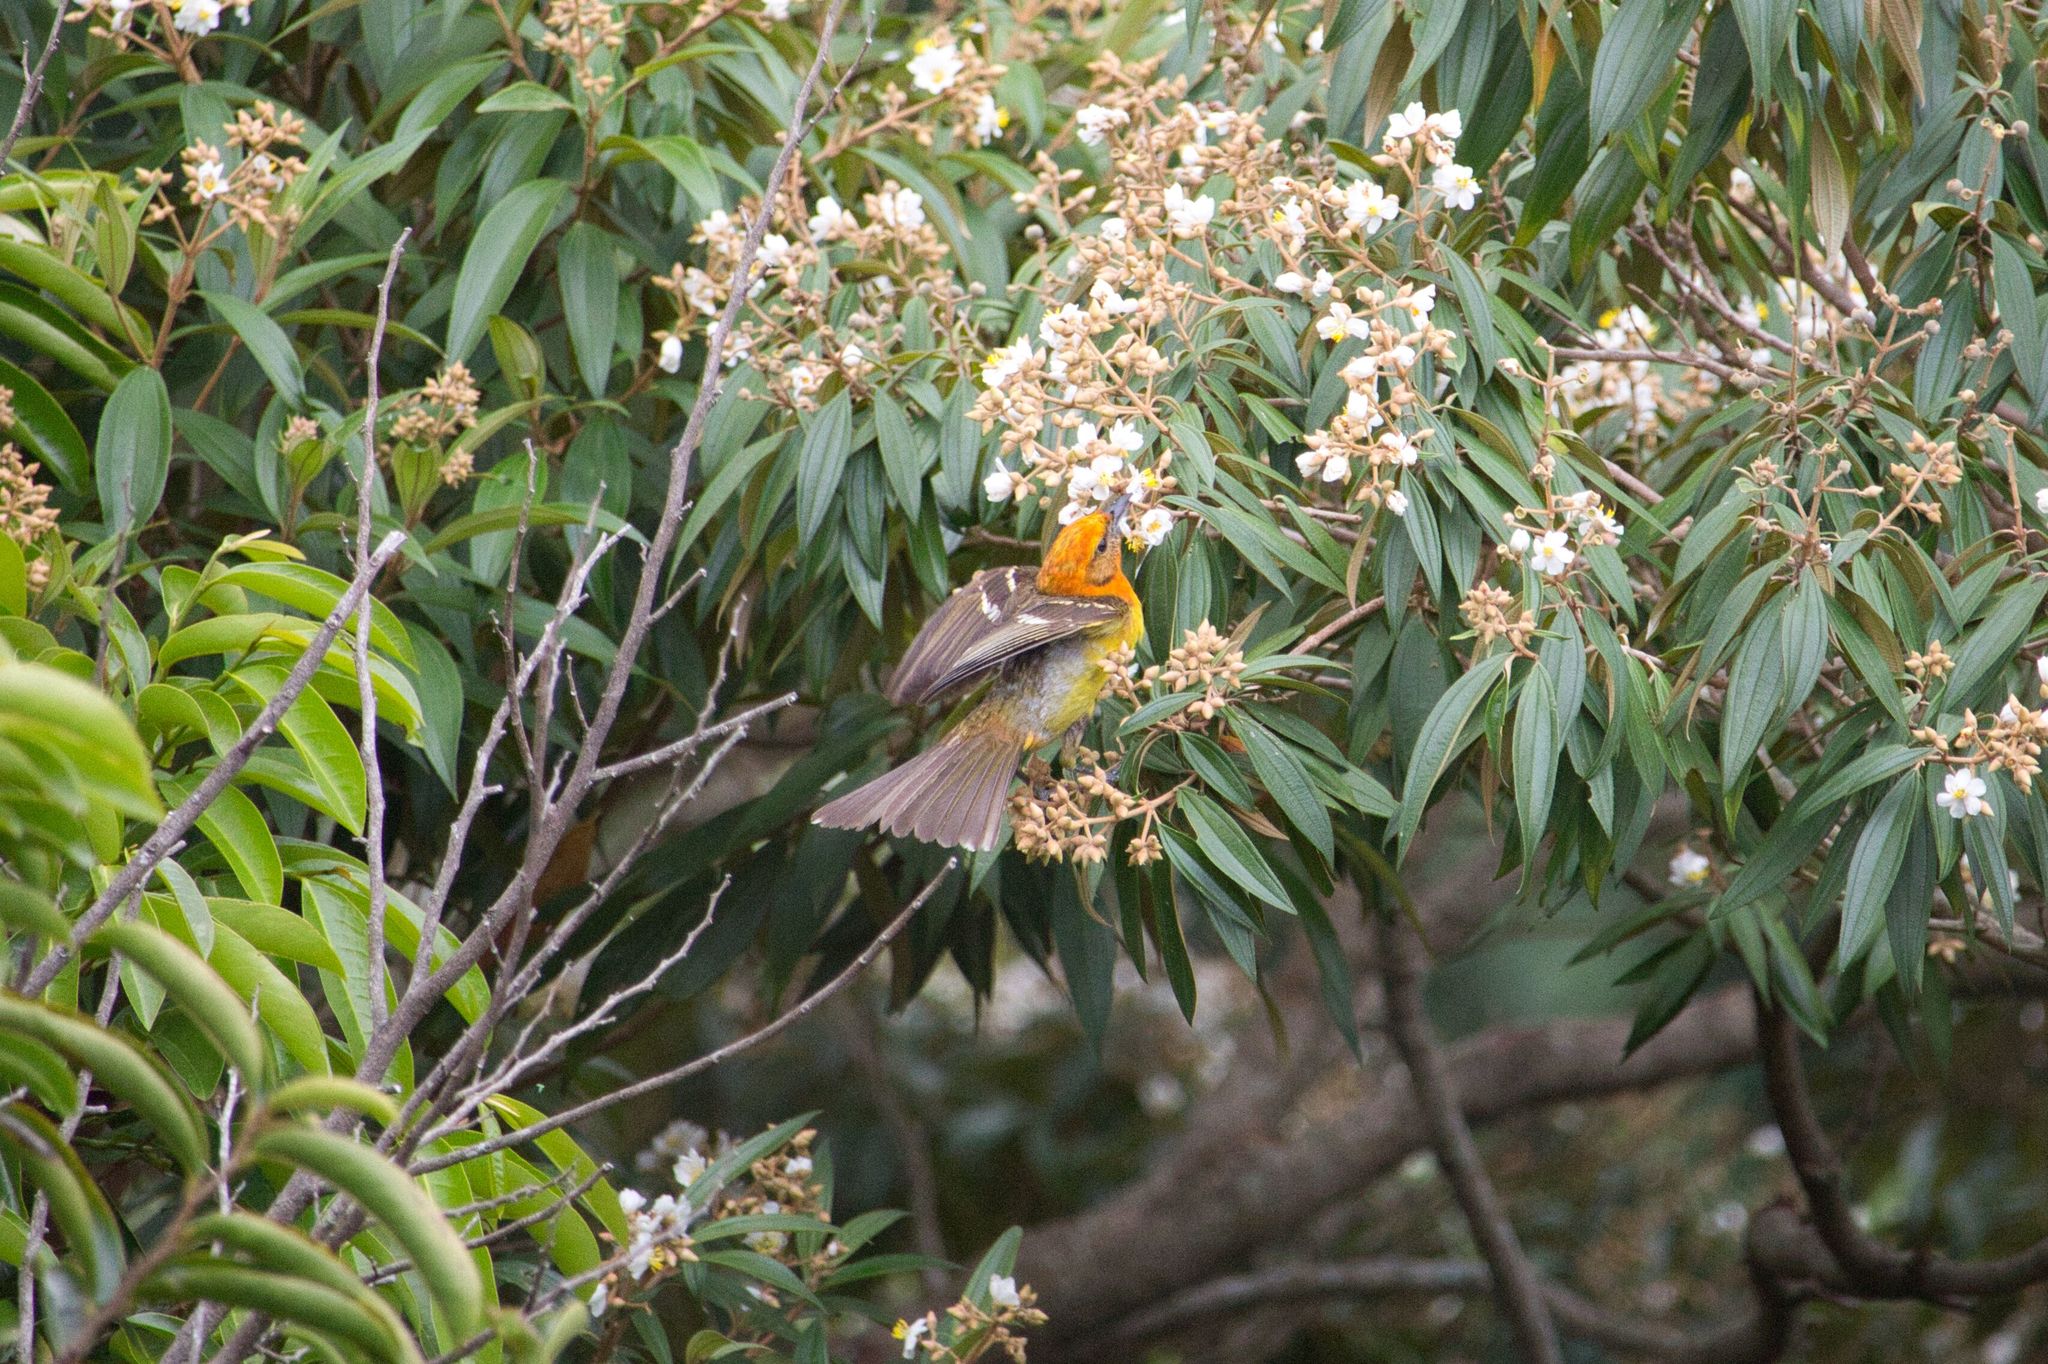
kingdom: Animalia
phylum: Chordata
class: Aves
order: Passeriformes
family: Cardinalidae
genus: Piranga
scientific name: Piranga bidentata
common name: Flame-colored tanager
